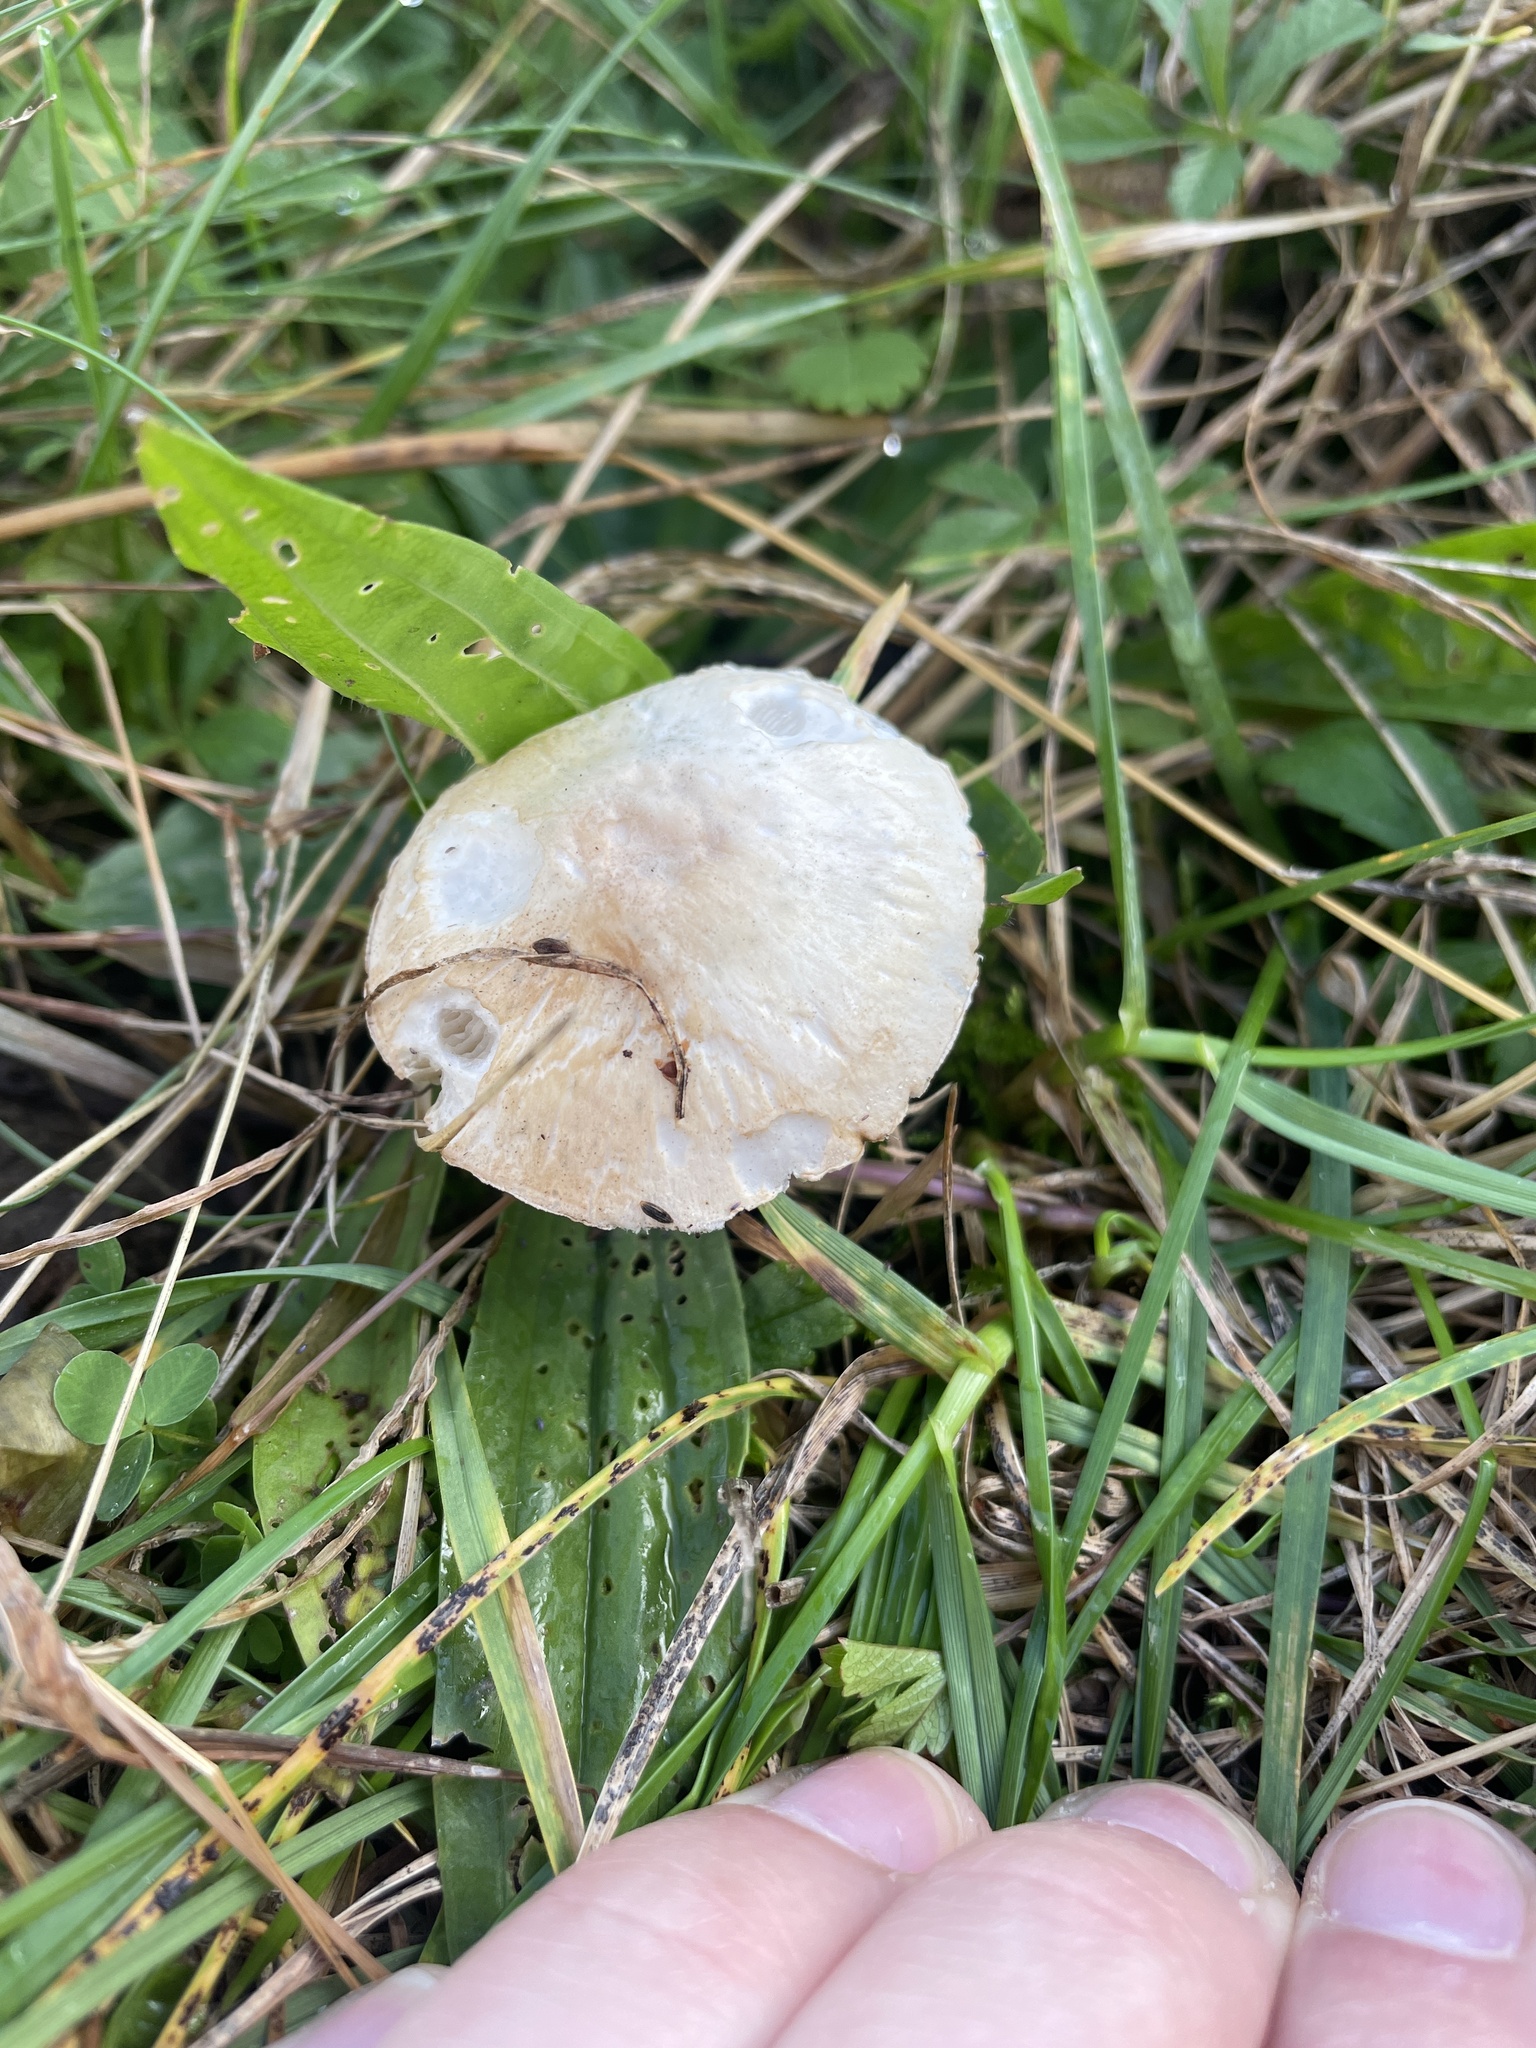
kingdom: Fungi
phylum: Basidiomycota
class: Agaricomycetes
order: Agaricales
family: Agaricaceae
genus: Leucoagaricus
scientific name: Leucoagaricus leucothites
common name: White dapperling
